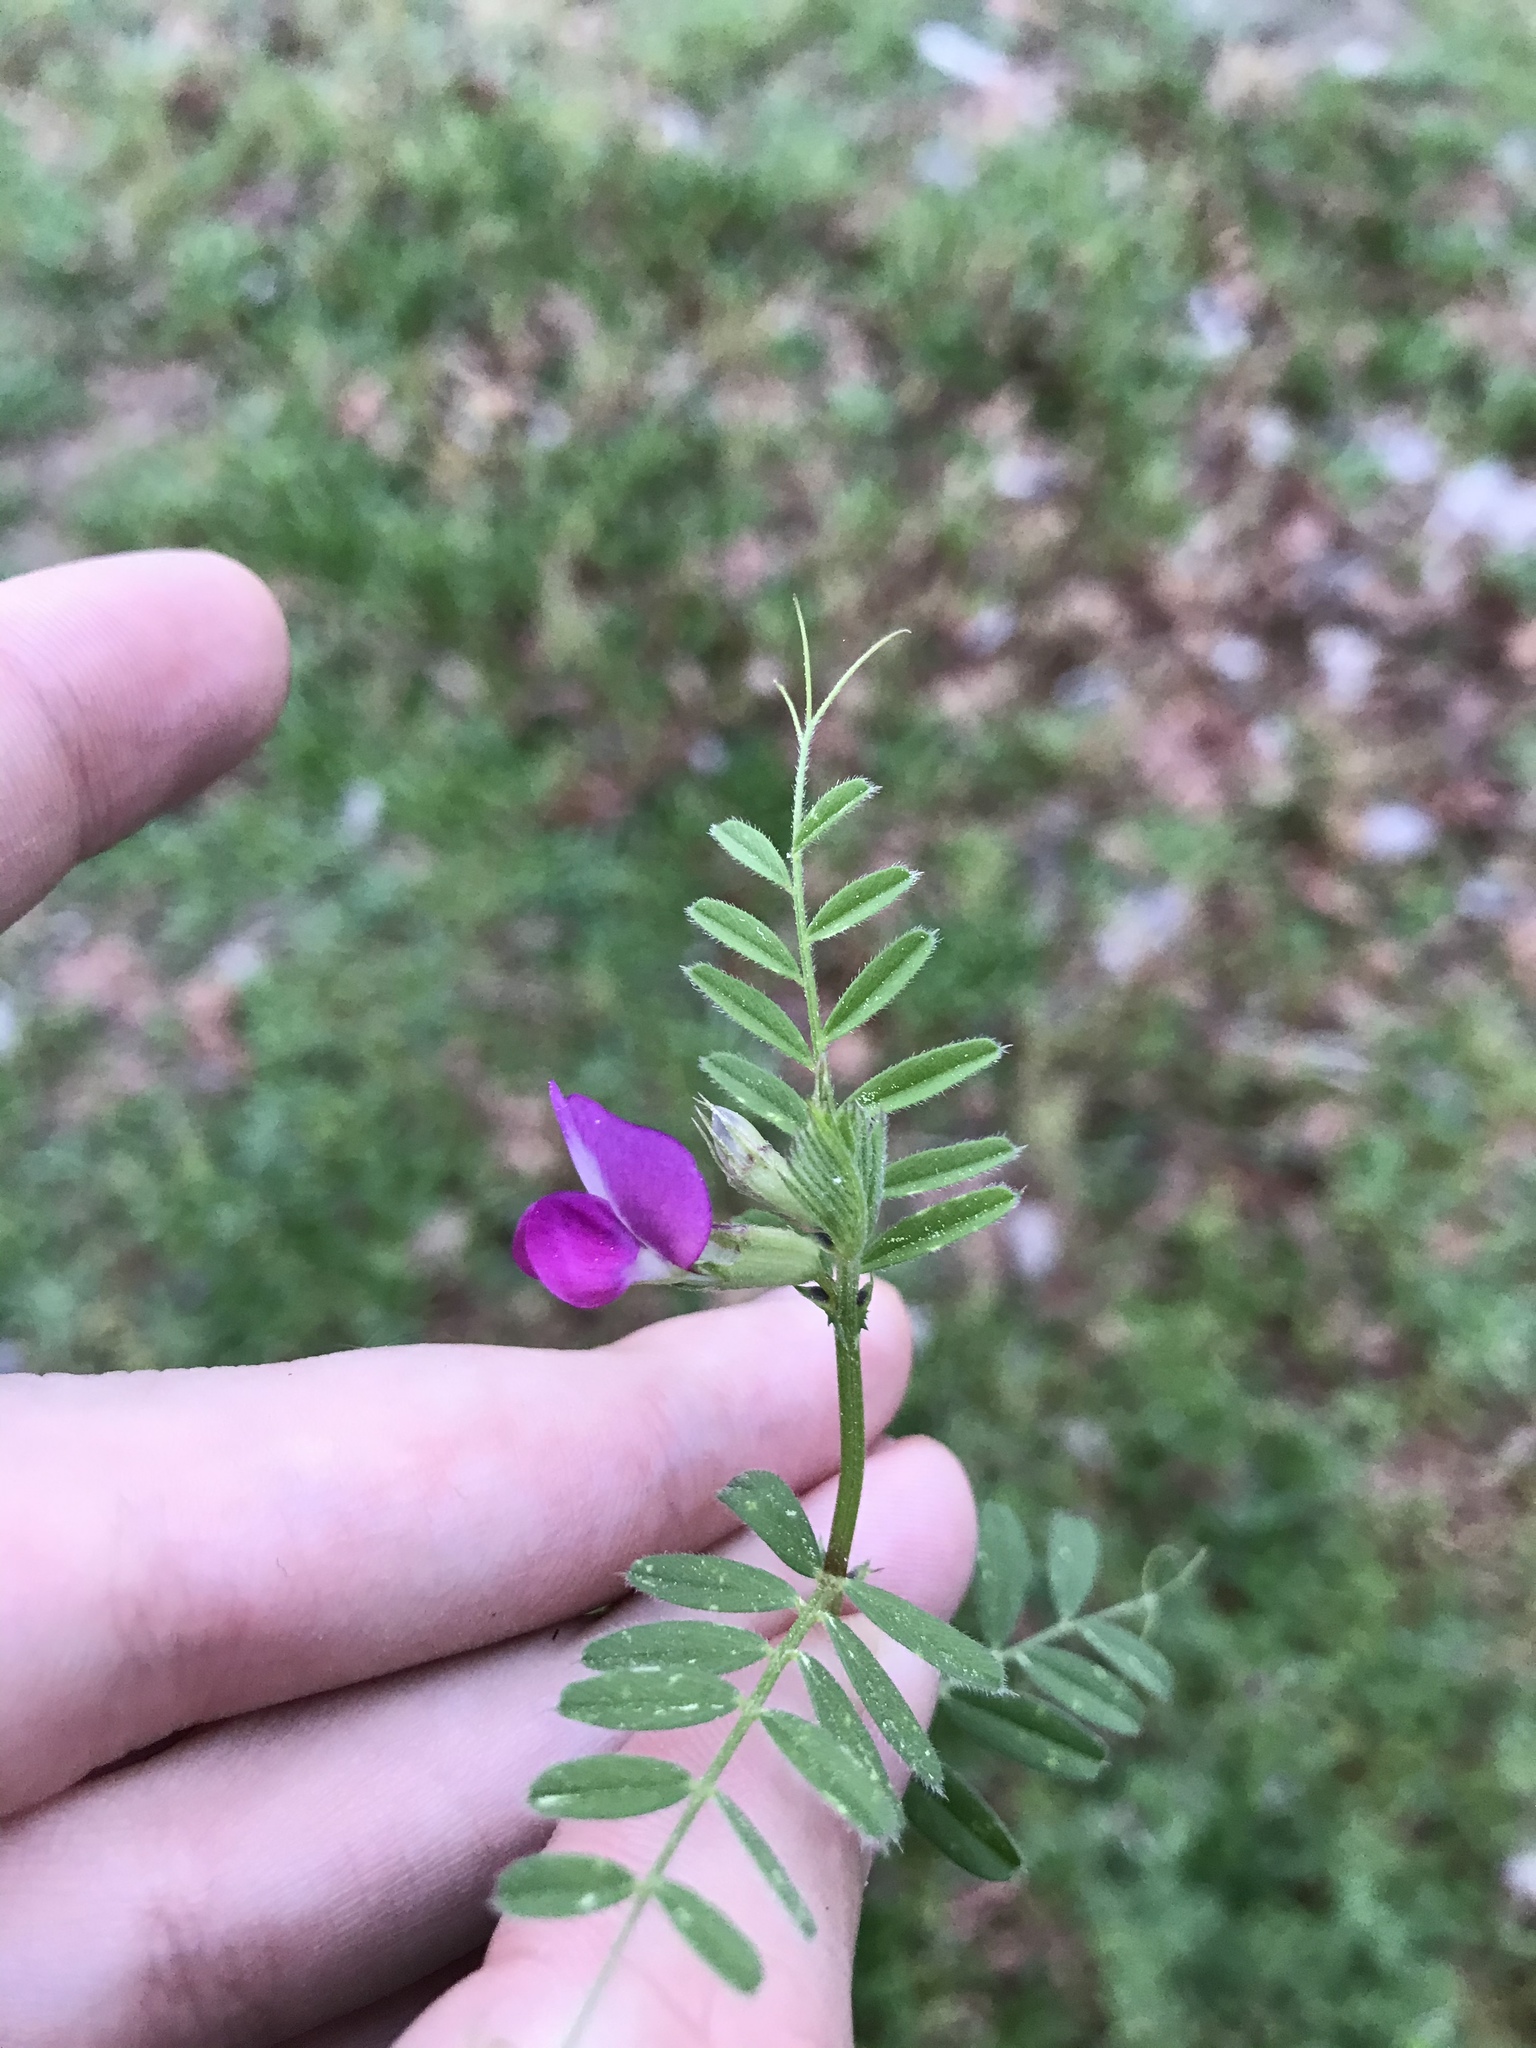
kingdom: Plantae
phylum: Tracheophyta
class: Magnoliopsida
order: Fabales
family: Fabaceae
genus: Vicia
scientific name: Vicia sativa
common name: Garden vetch
